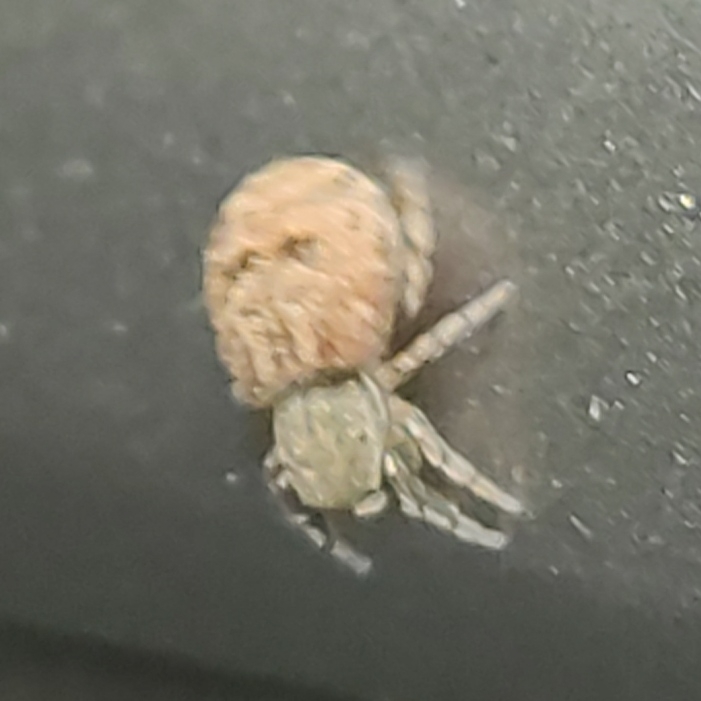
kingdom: Animalia
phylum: Arthropoda
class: Arachnida
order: Araneae
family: Salticidae
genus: Ballus
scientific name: Ballus chalybeius
